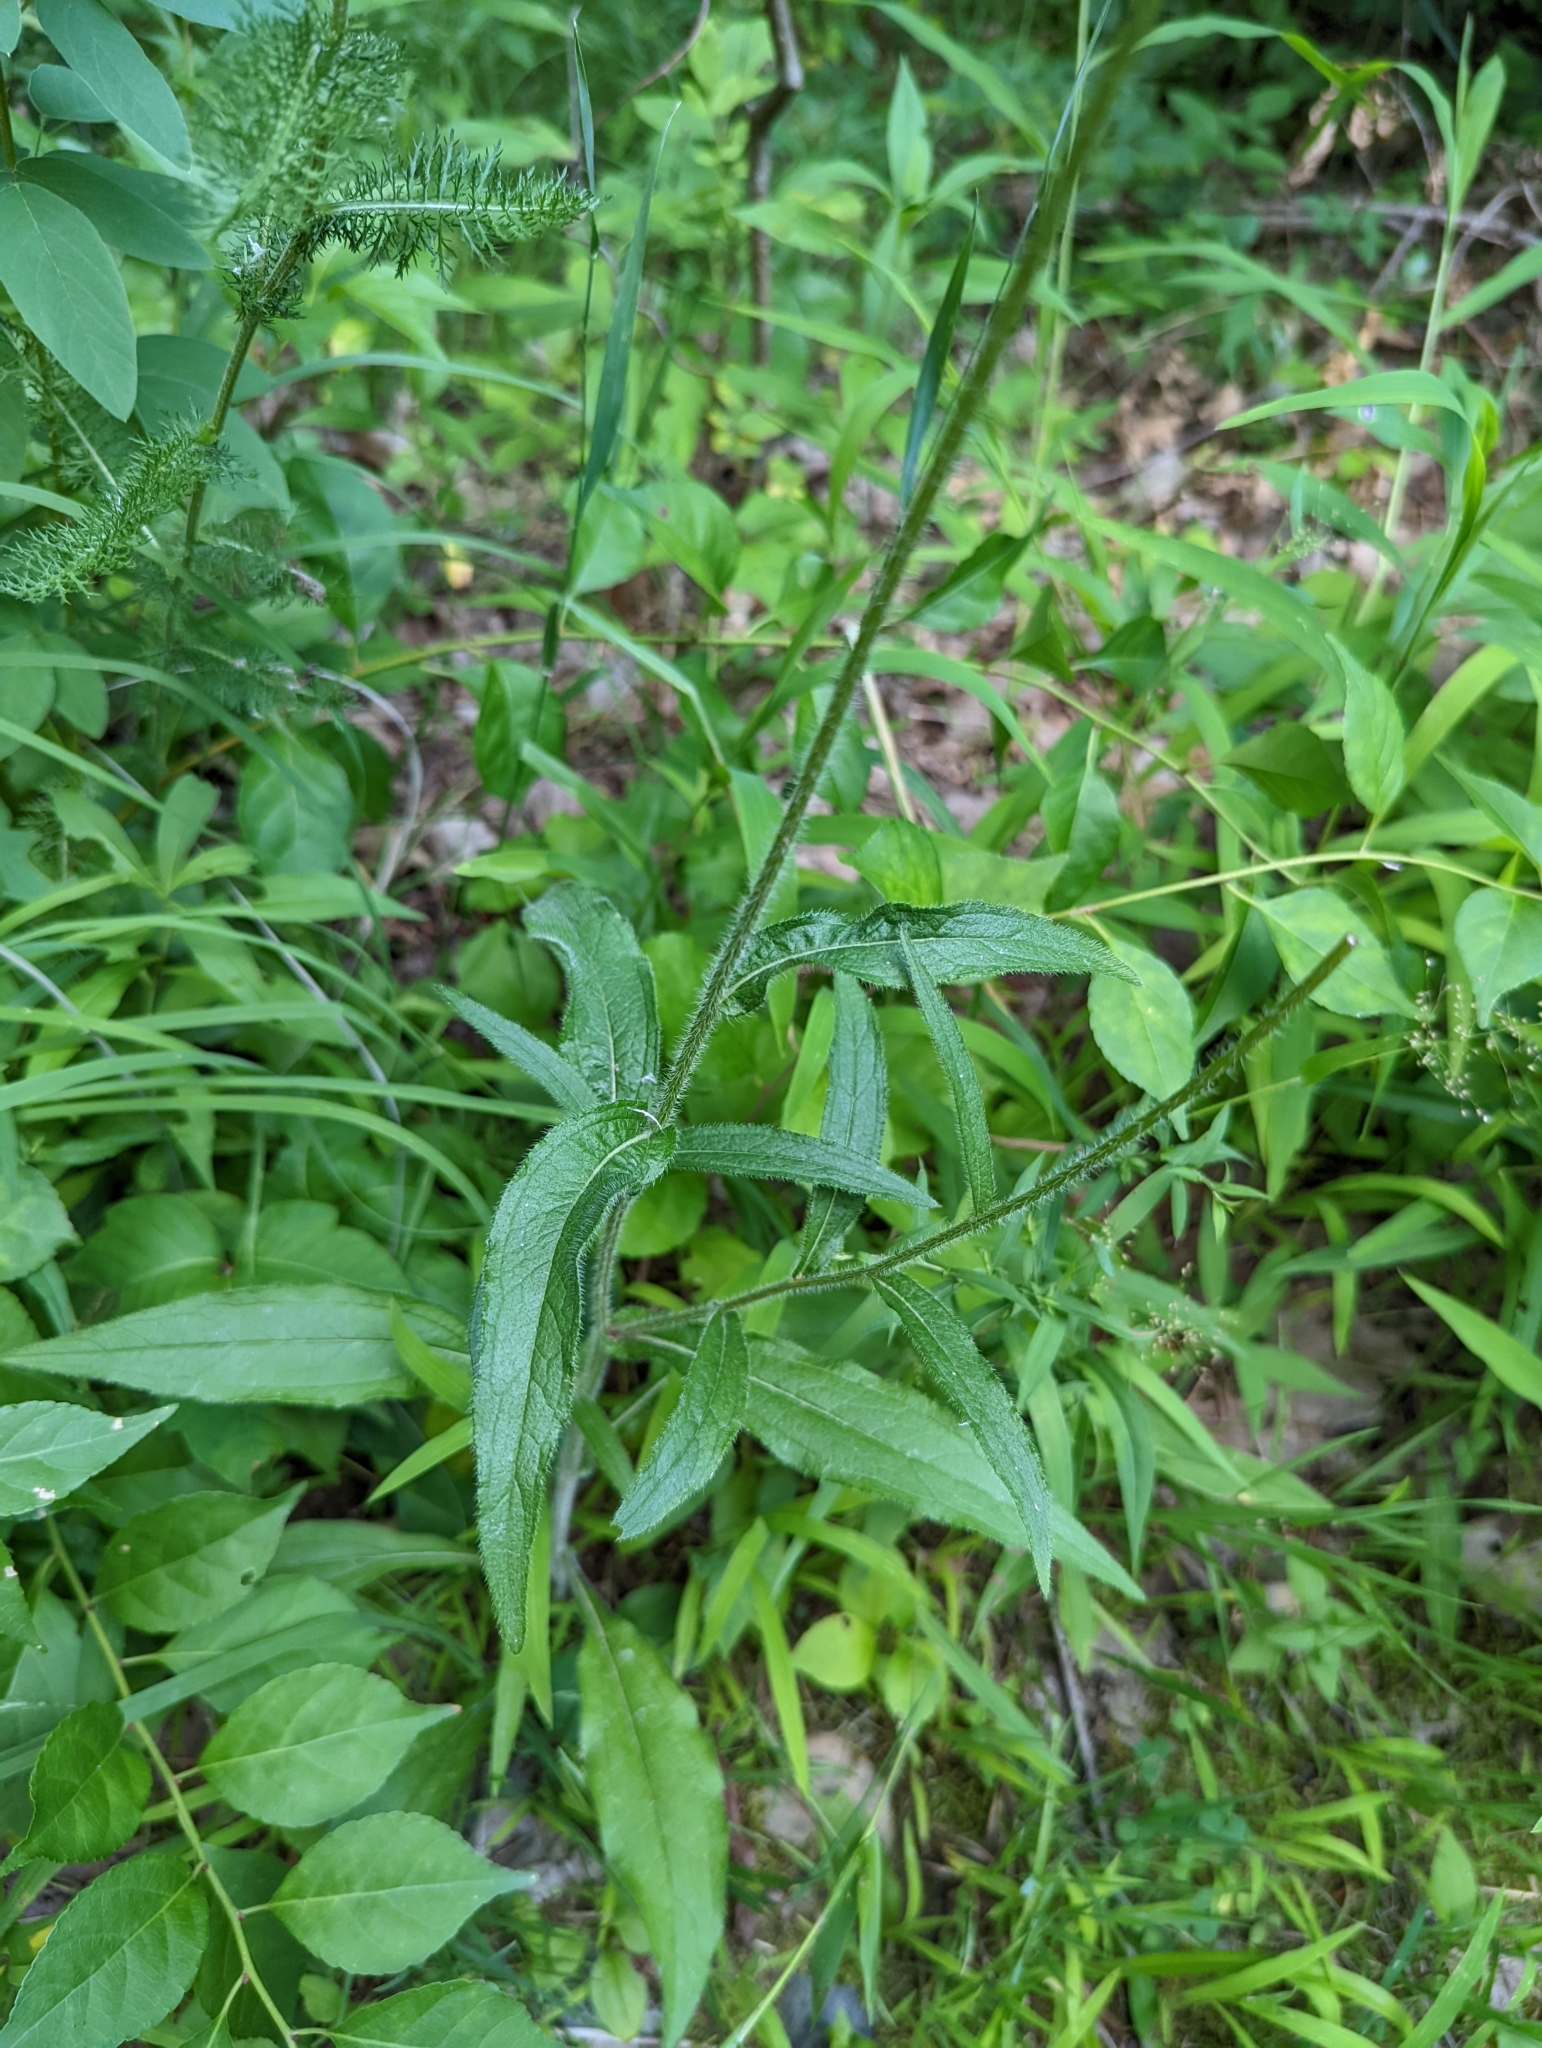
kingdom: Plantae
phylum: Tracheophyta
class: Magnoliopsida
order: Asterales
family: Asteraceae
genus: Rudbeckia
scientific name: Rudbeckia hirta
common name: Black-eyed-susan
